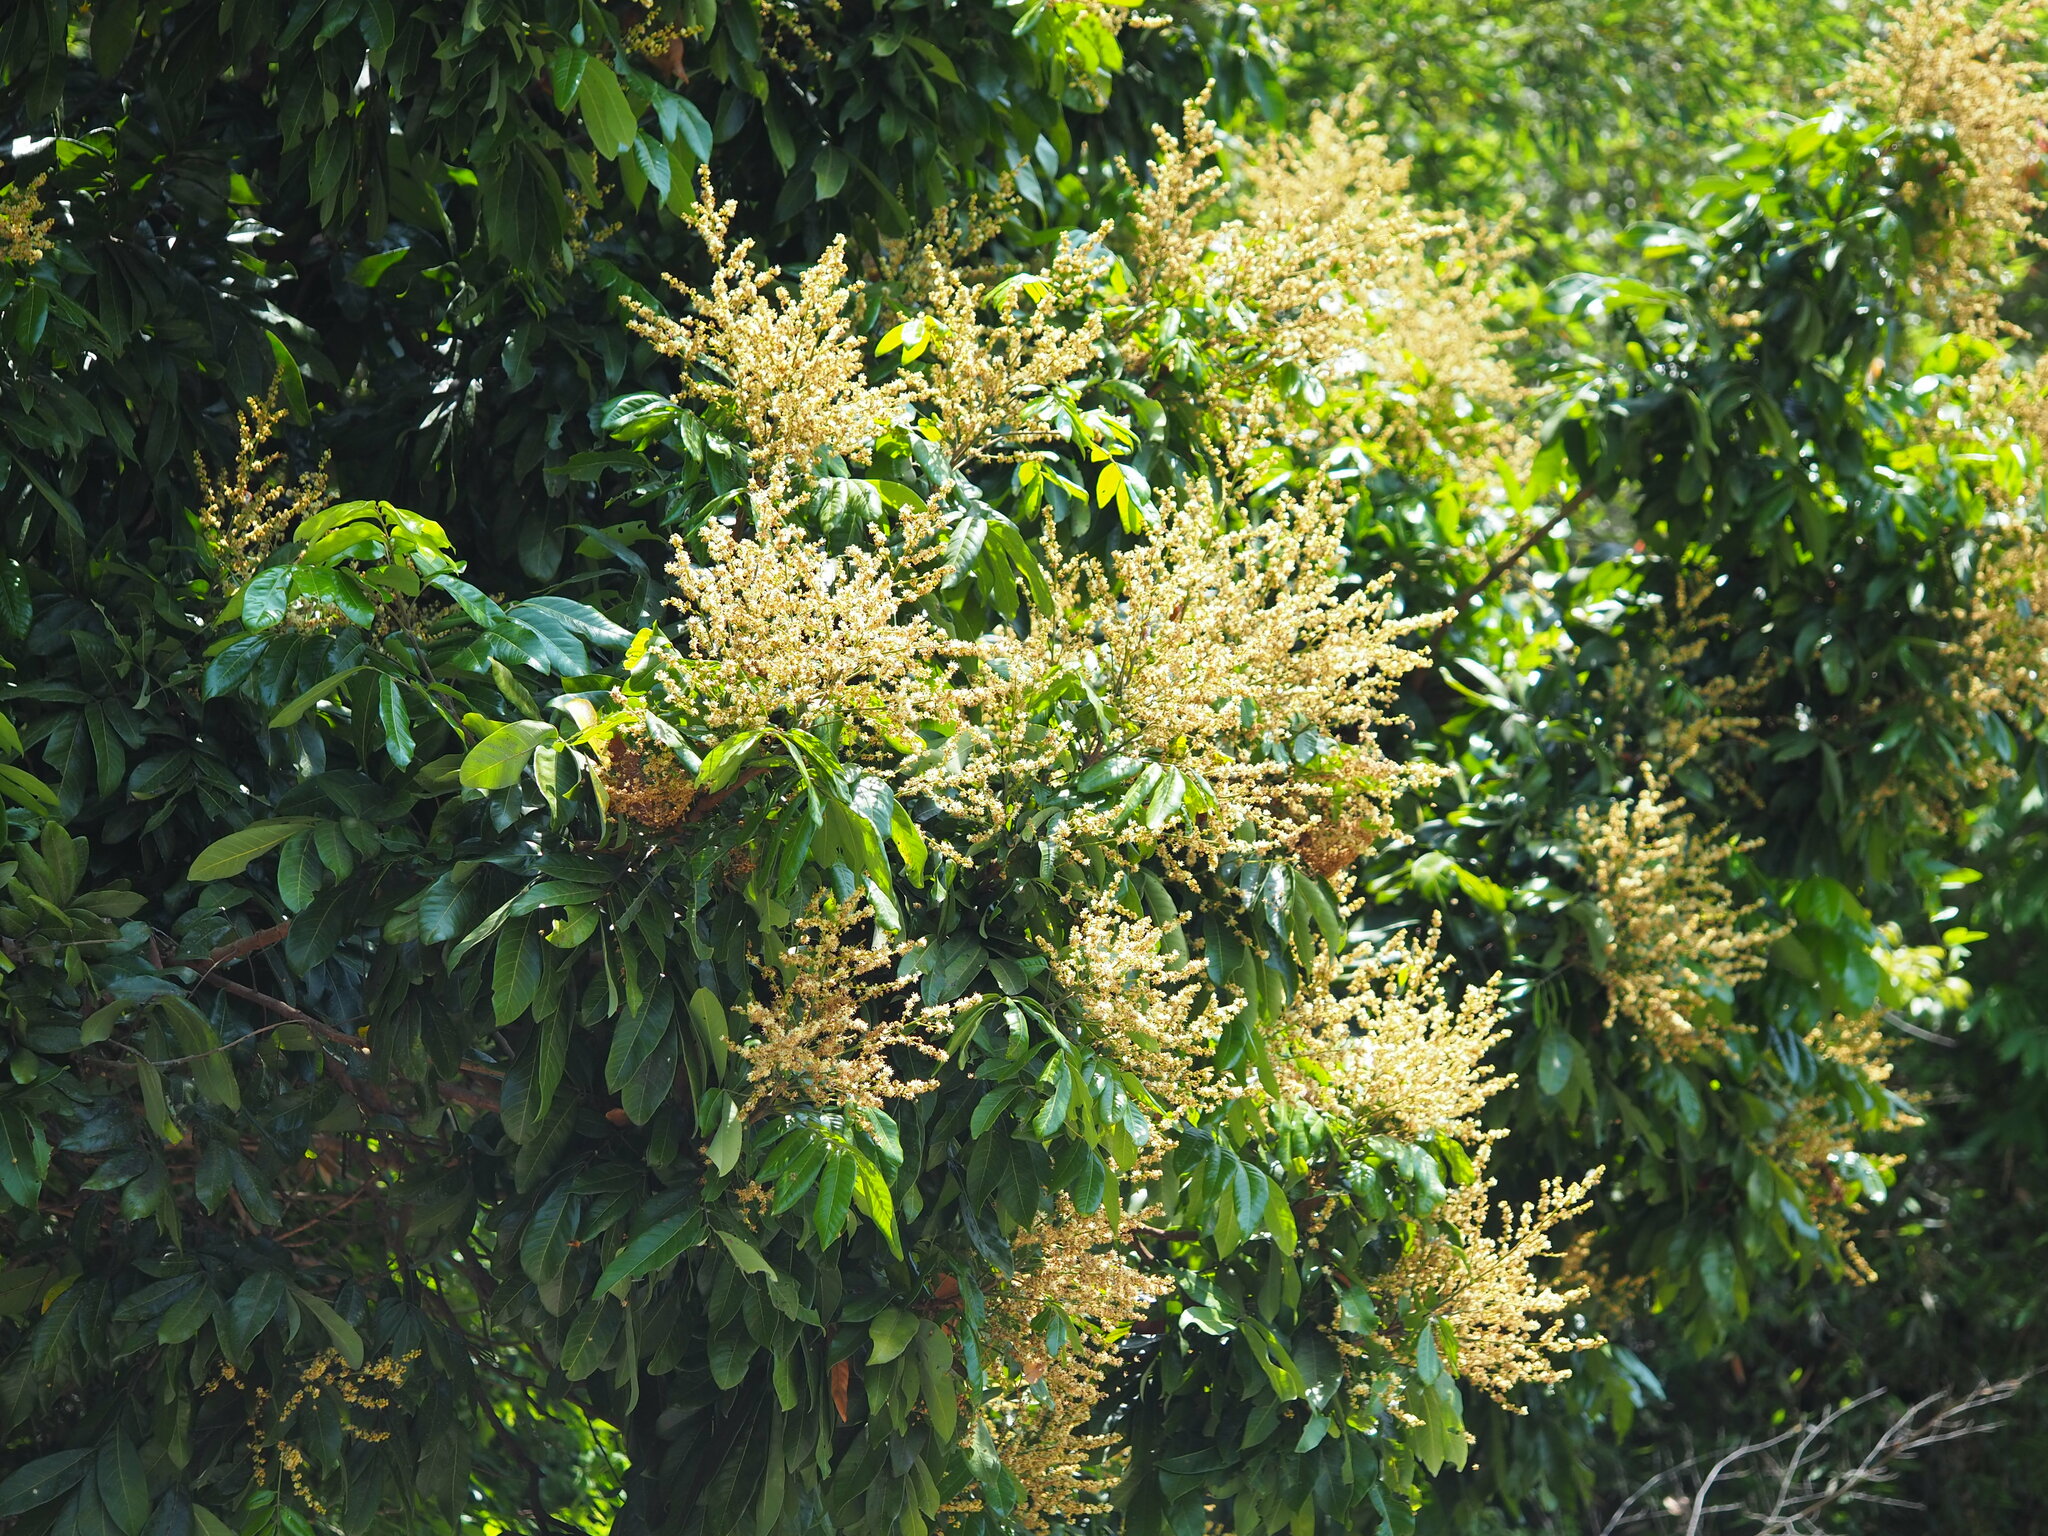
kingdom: Plantae
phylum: Tracheophyta
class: Magnoliopsida
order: Sapindales
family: Sapindaceae
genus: Dimocarpus
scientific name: Dimocarpus longan
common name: Longan
